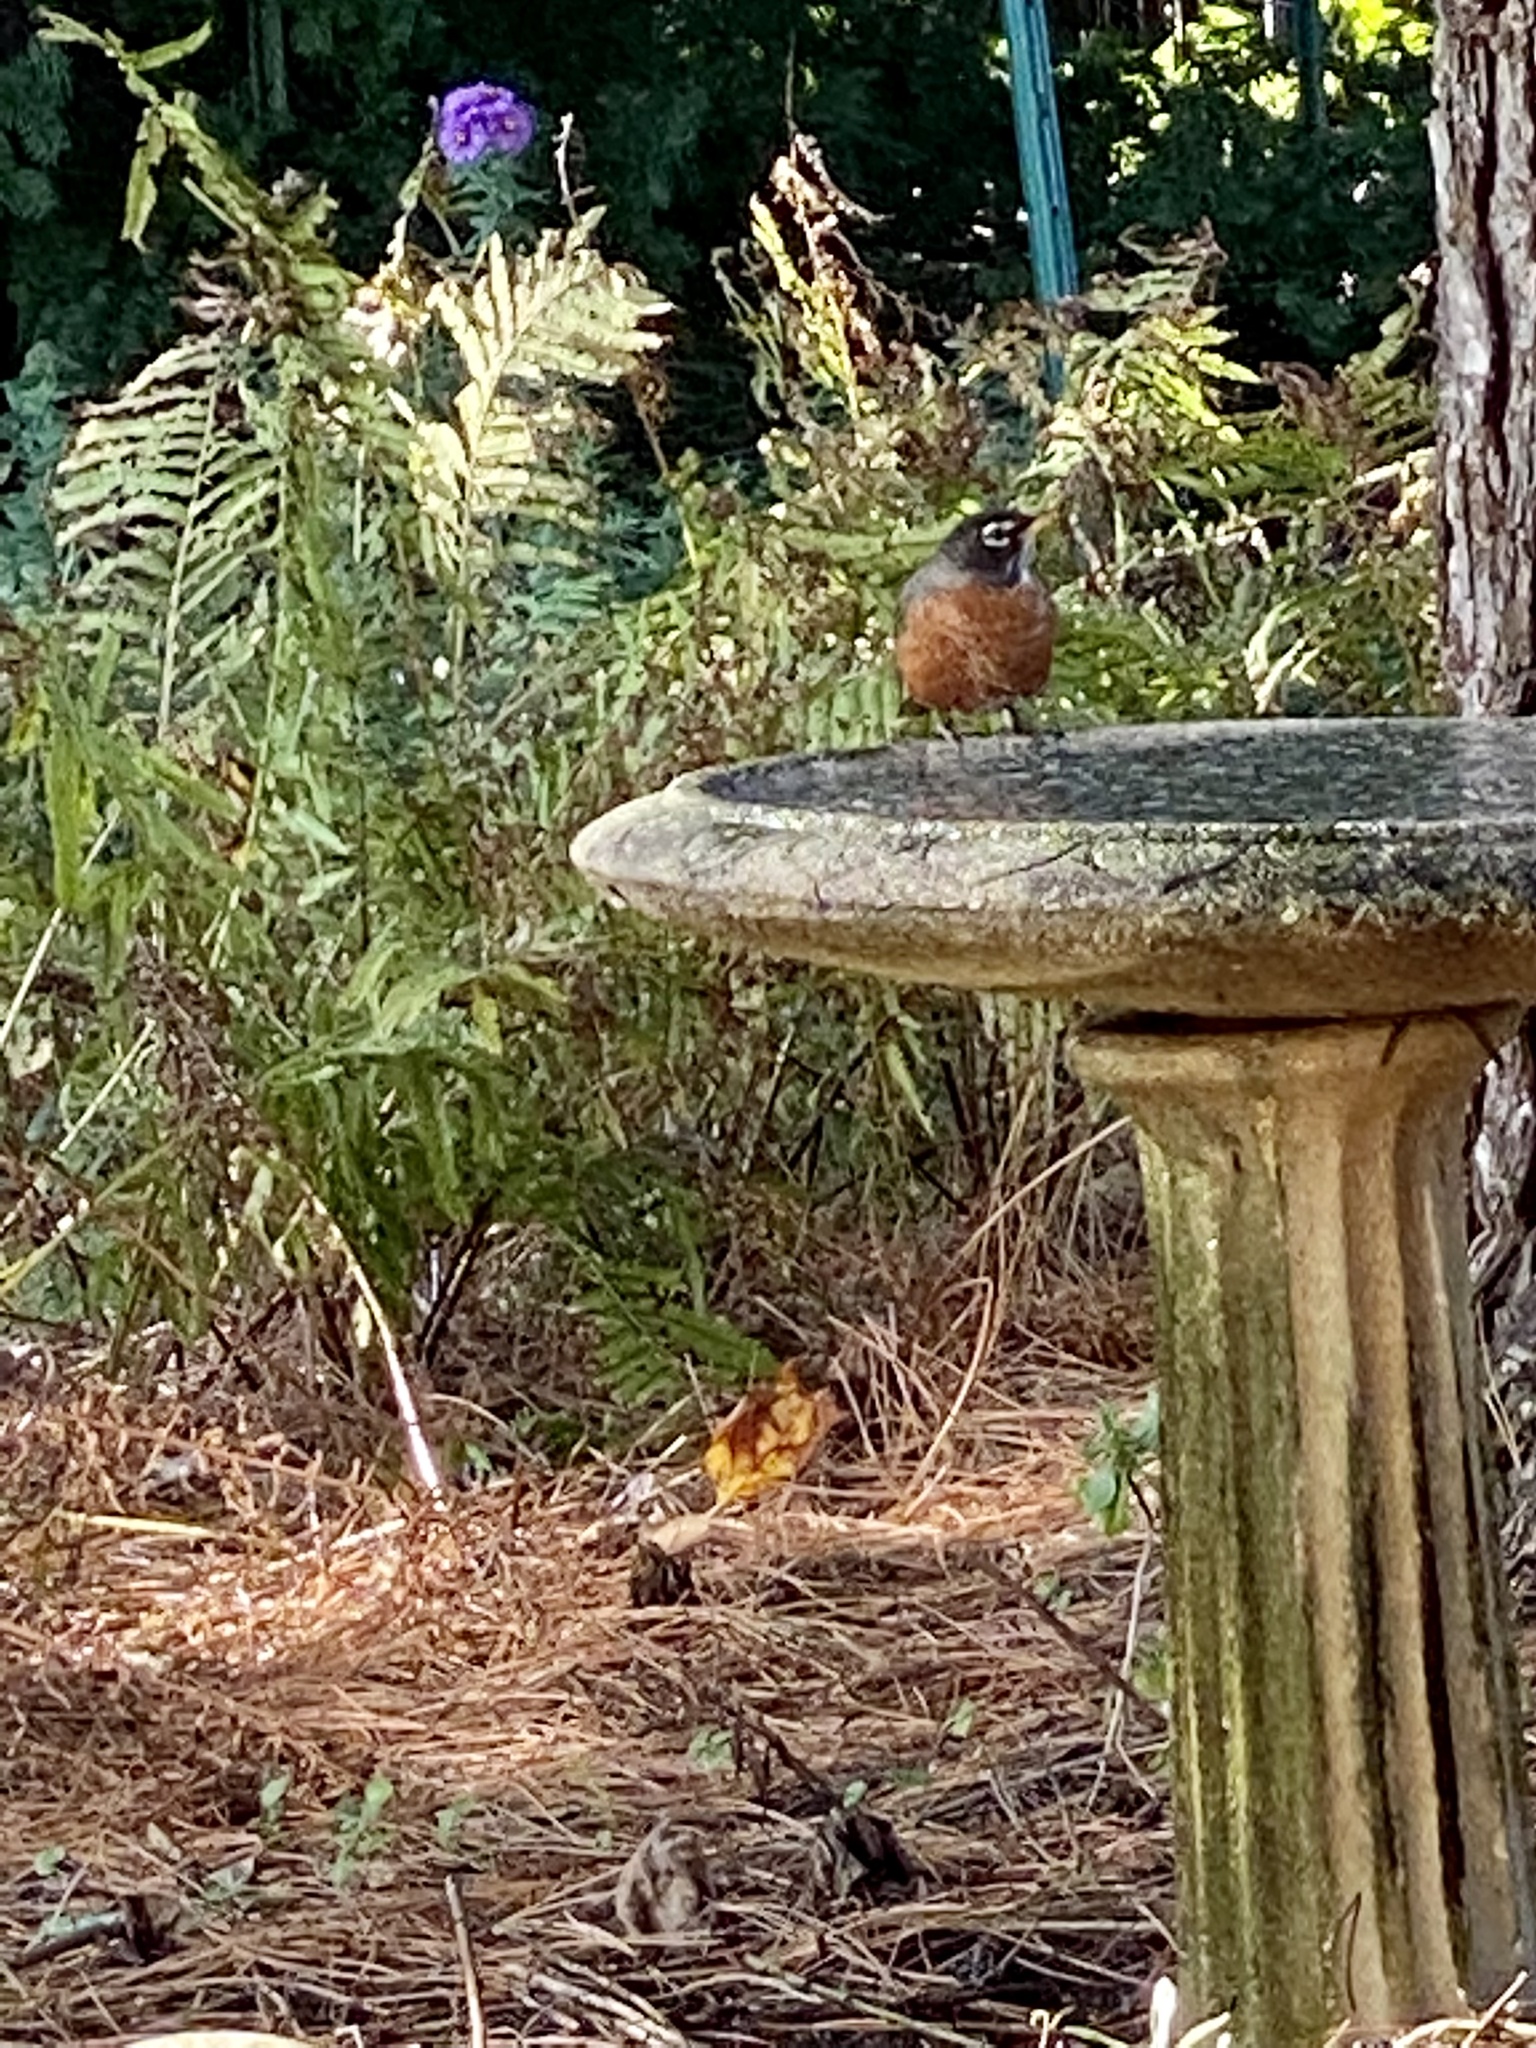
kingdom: Animalia
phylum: Chordata
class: Aves
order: Passeriformes
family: Turdidae
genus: Turdus
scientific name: Turdus migratorius
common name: American robin
